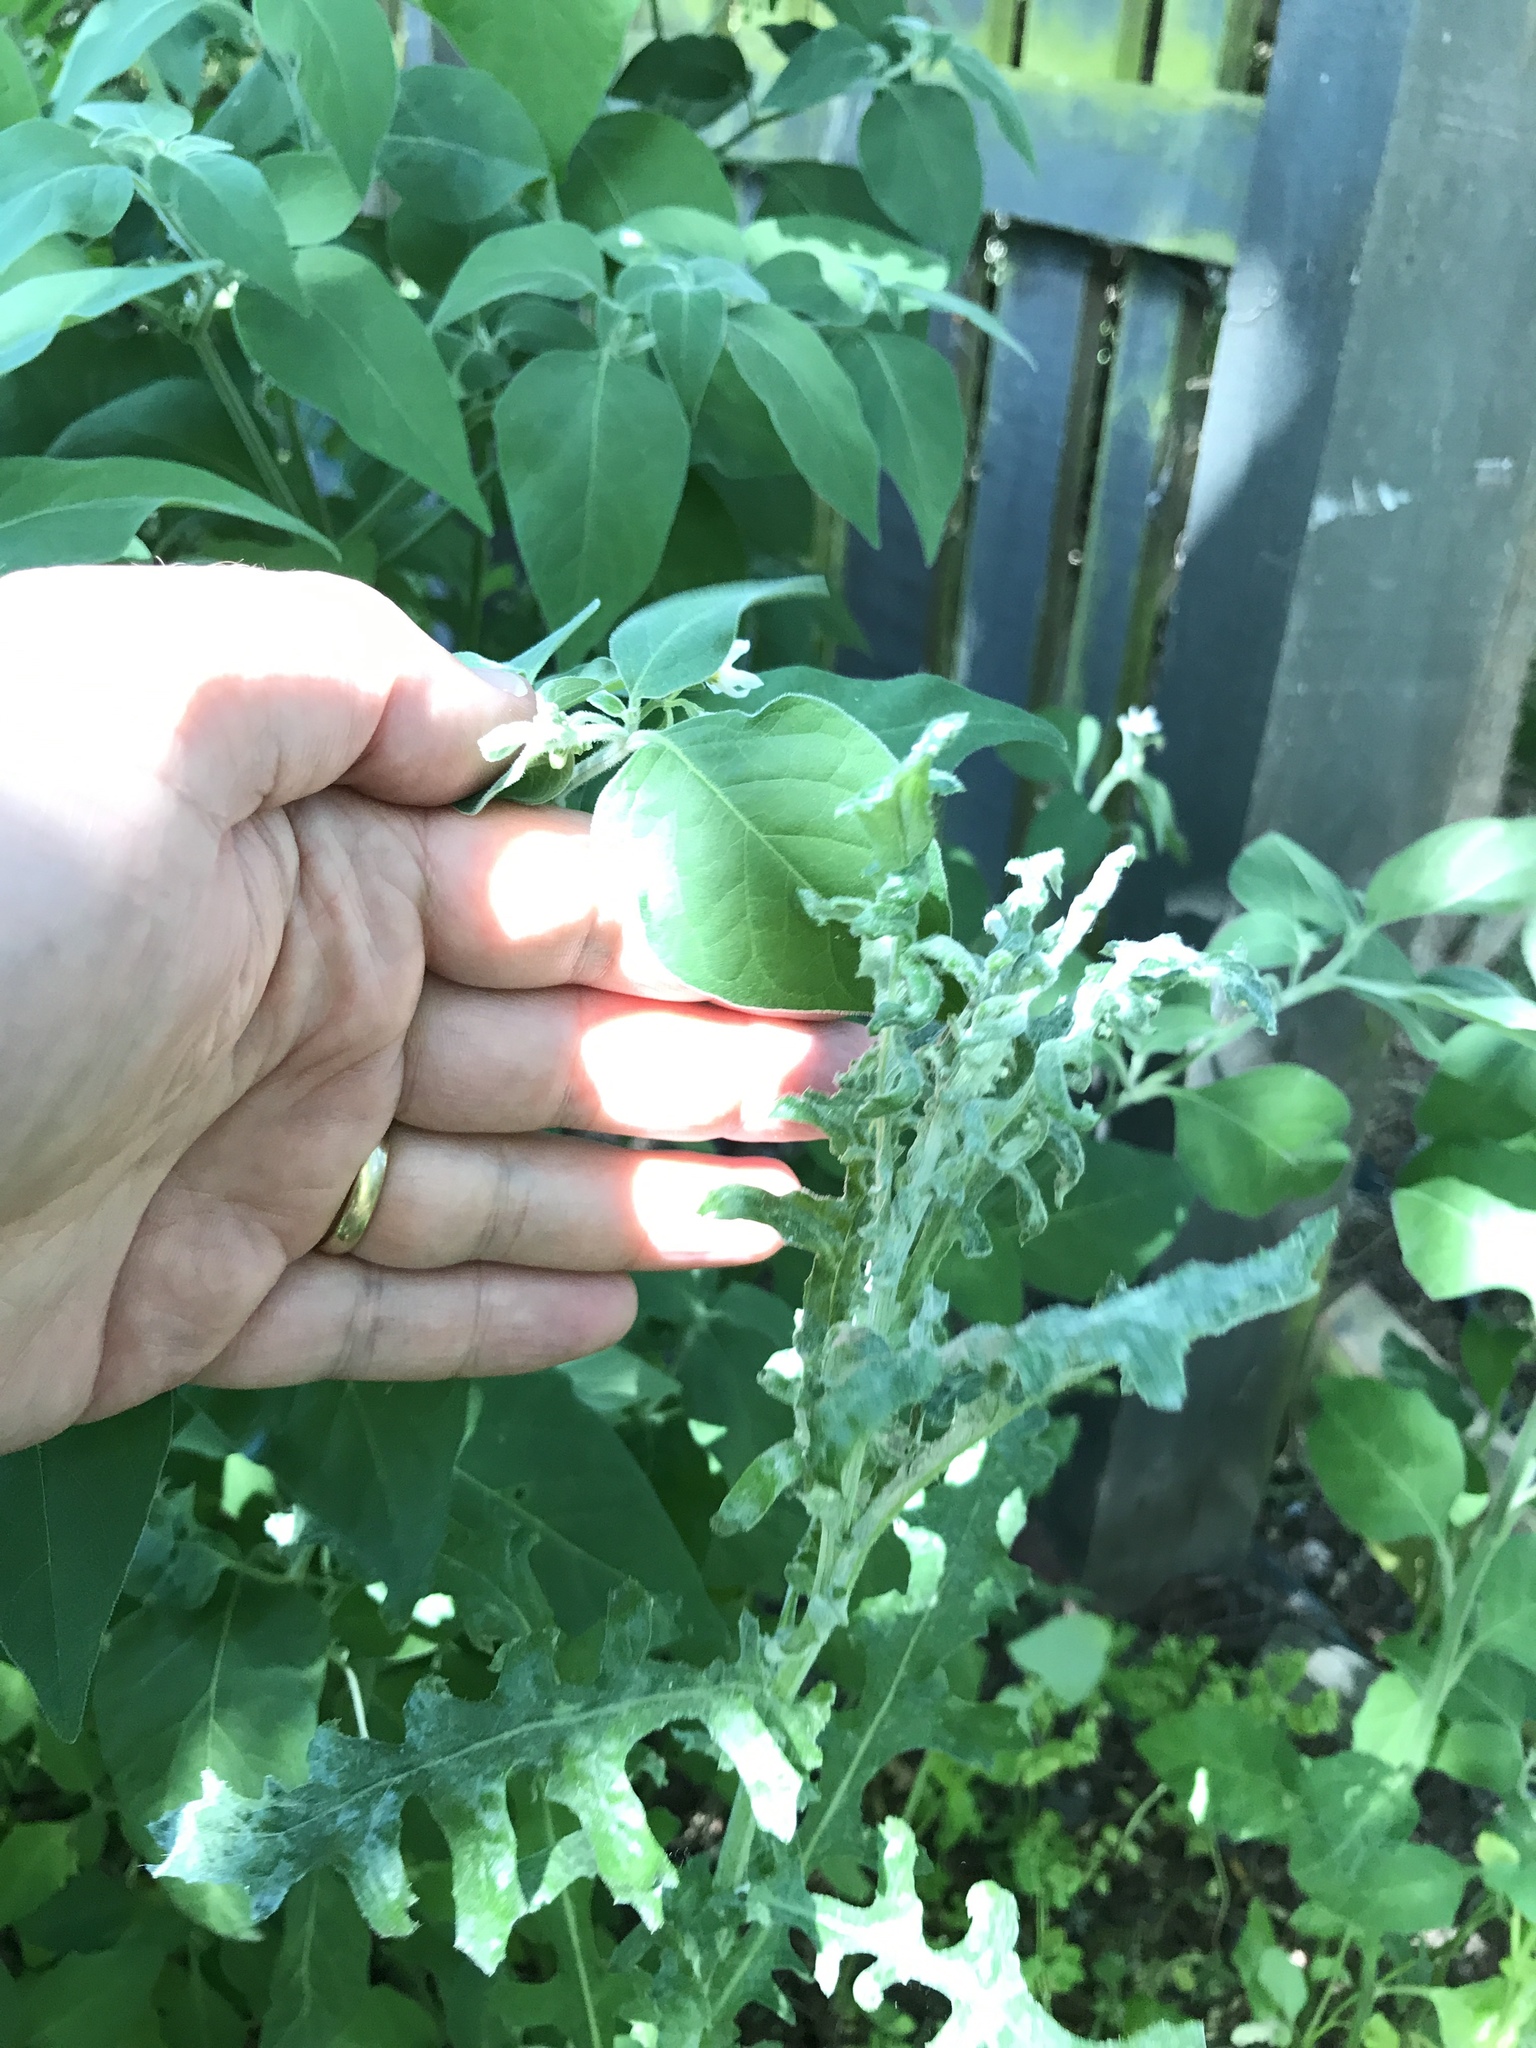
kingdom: Plantae
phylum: Tracheophyta
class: Magnoliopsida
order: Asterales
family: Asteraceae
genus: Senecio
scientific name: Senecio glomeratus
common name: Cutleaf burnweed
